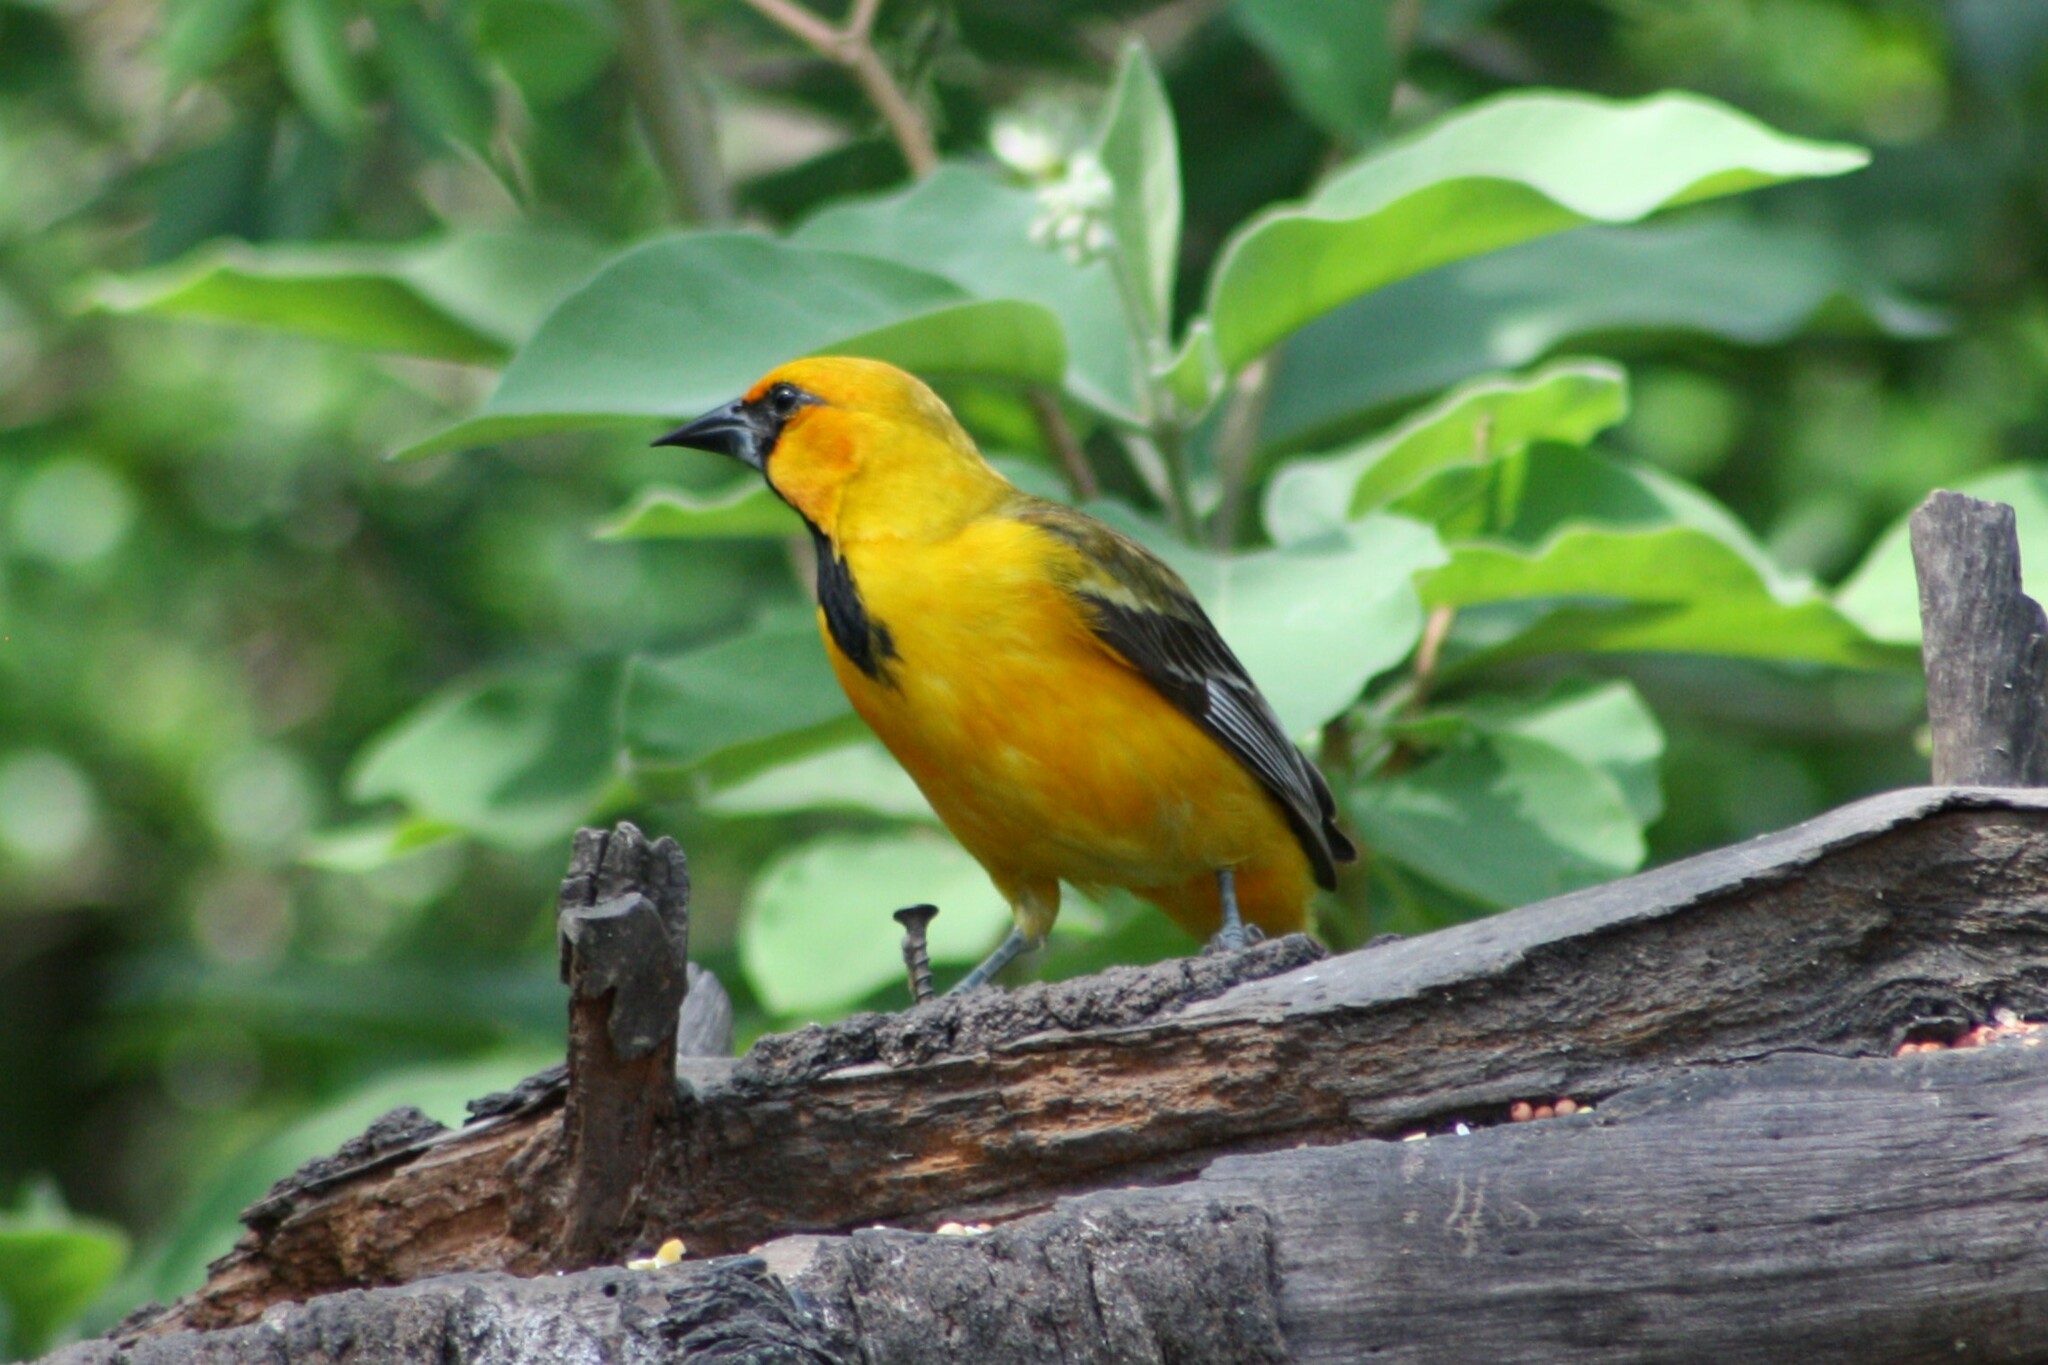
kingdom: Animalia
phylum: Chordata
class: Aves
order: Passeriformes
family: Icteridae
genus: Icterus
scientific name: Icterus gularis
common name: Altamira oriole
